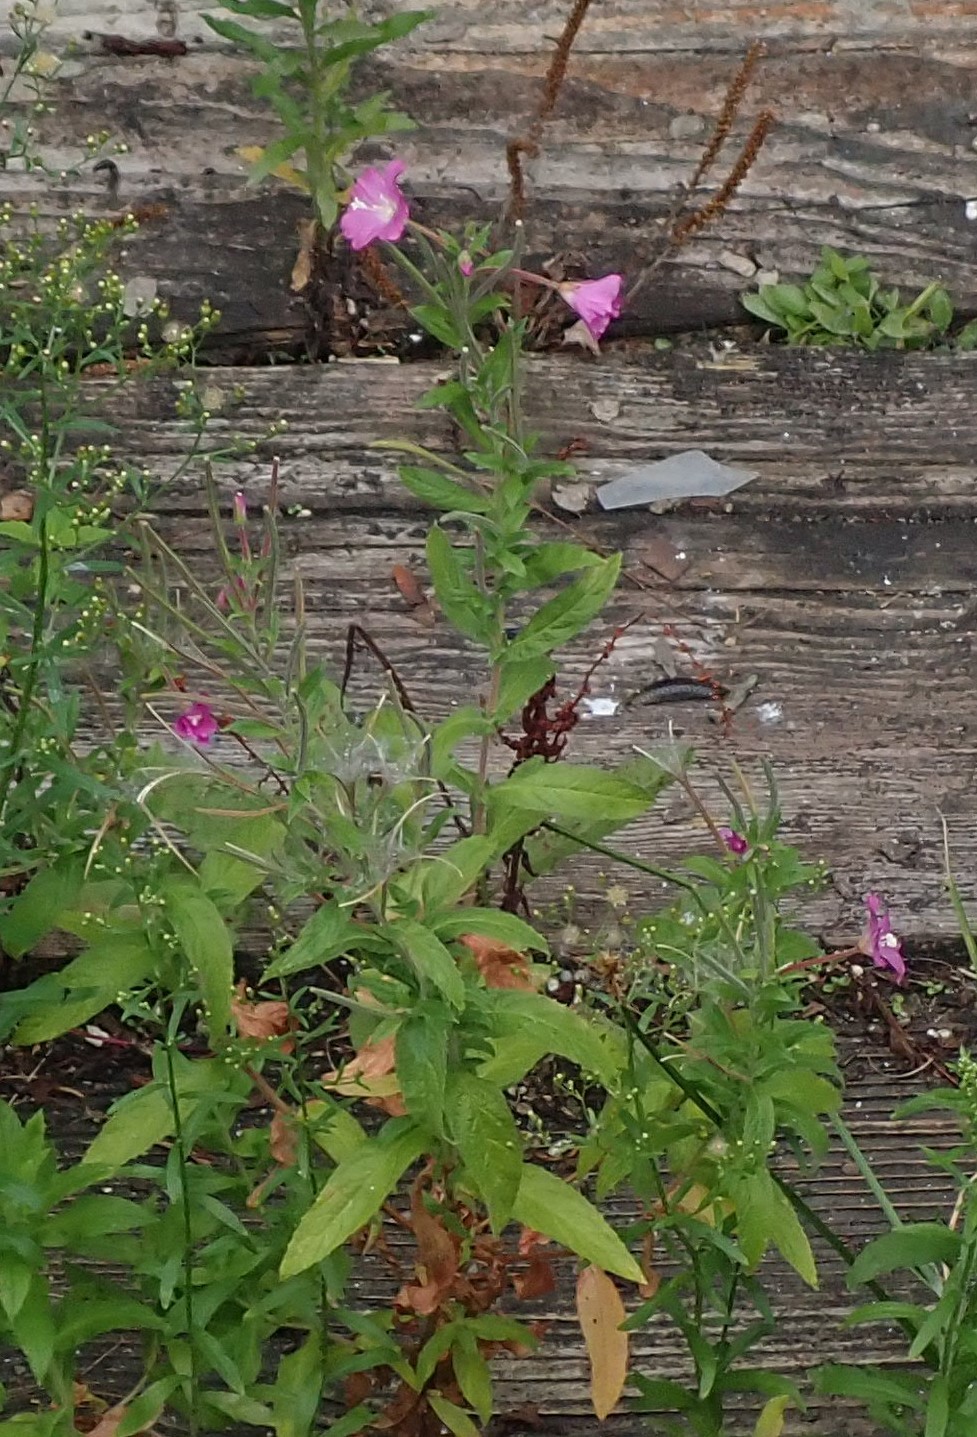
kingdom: Plantae
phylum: Tracheophyta
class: Magnoliopsida
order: Myrtales
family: Onagraceae
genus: Epilobium
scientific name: Epilobium hirsutum
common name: Great willowherb
